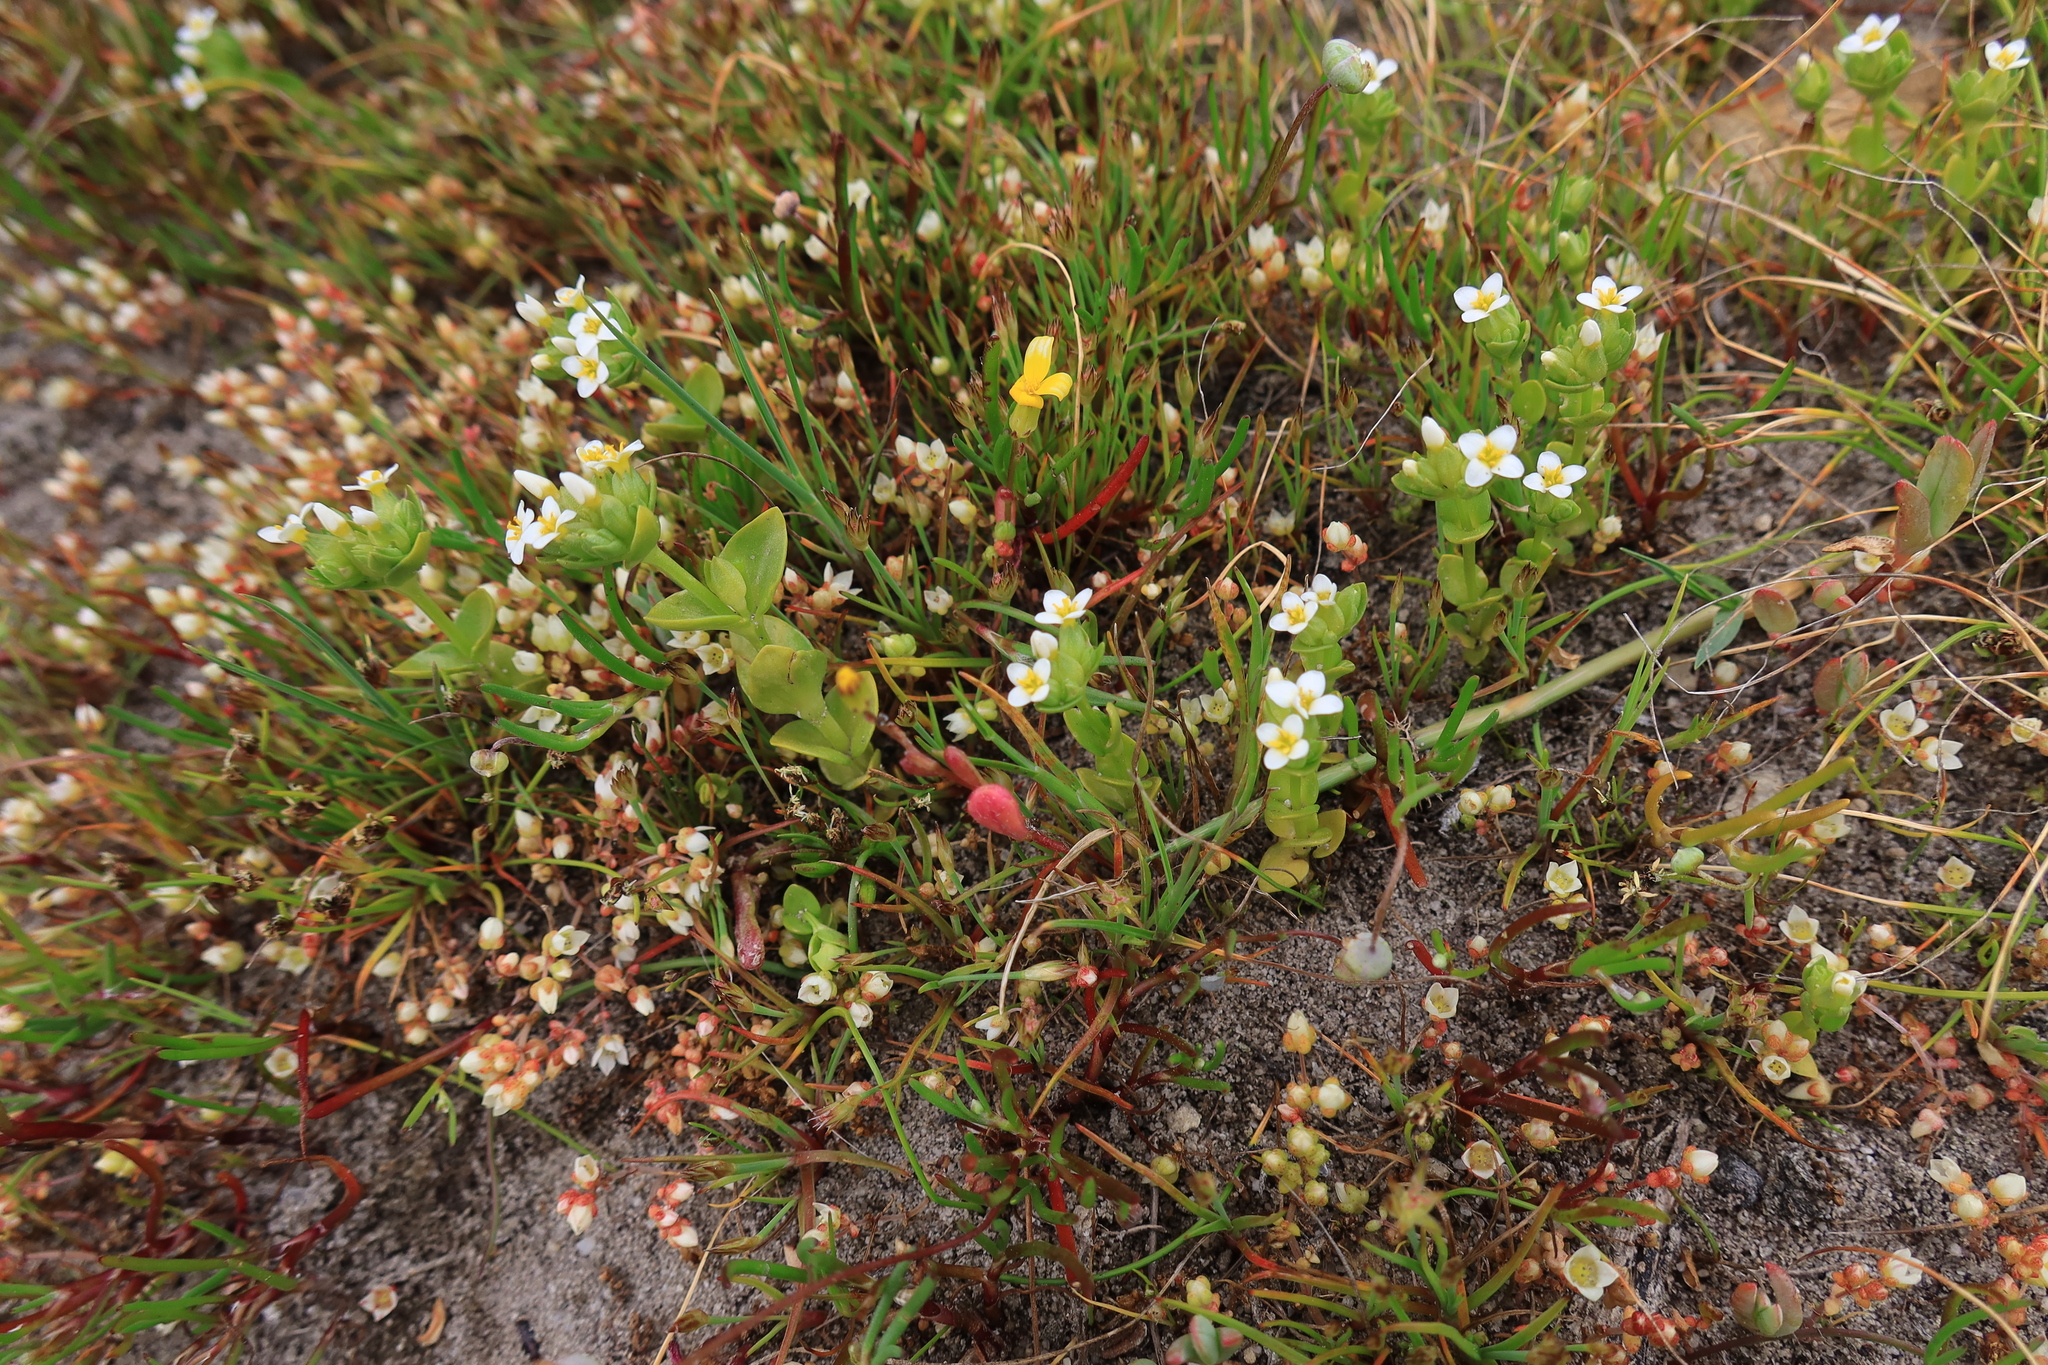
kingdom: Plantae
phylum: Tracheophyta
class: Magnoliopsida
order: Gentianales
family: Gentianaceae
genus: Sebaea
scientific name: Sebaea minutiflora
